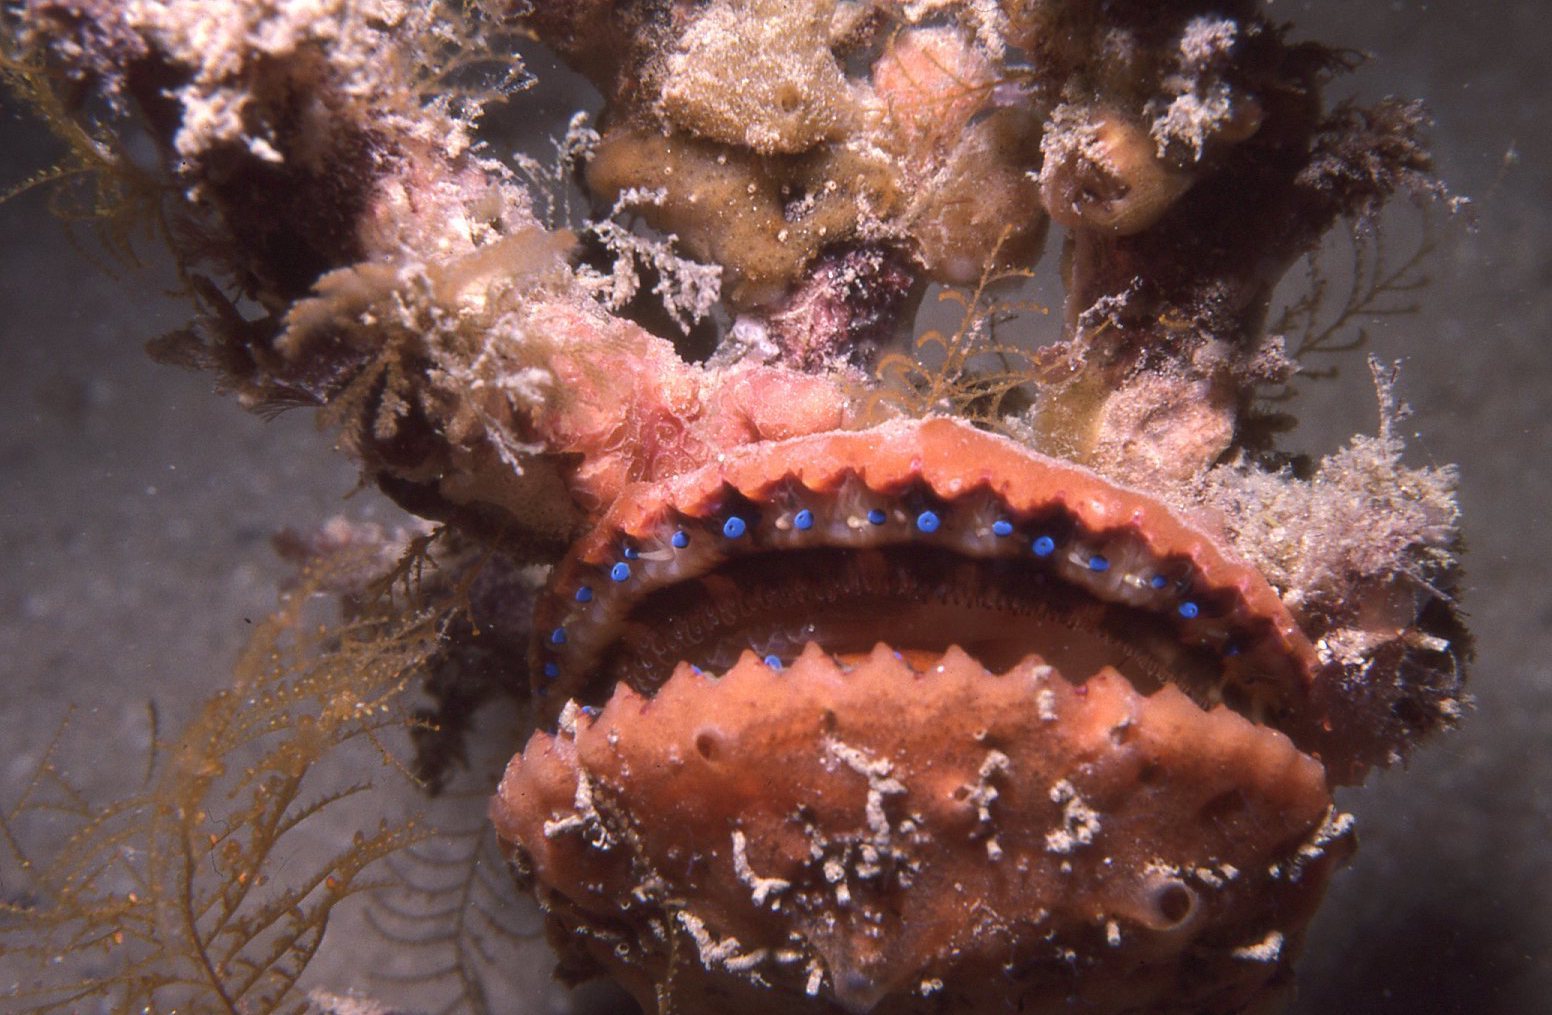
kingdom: Animalia
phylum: Mollusca
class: Bivalvia
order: Pectinida
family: Pectinidae
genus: Mimachlamys
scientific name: Mimachlamys asperrima
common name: Austral scallop
